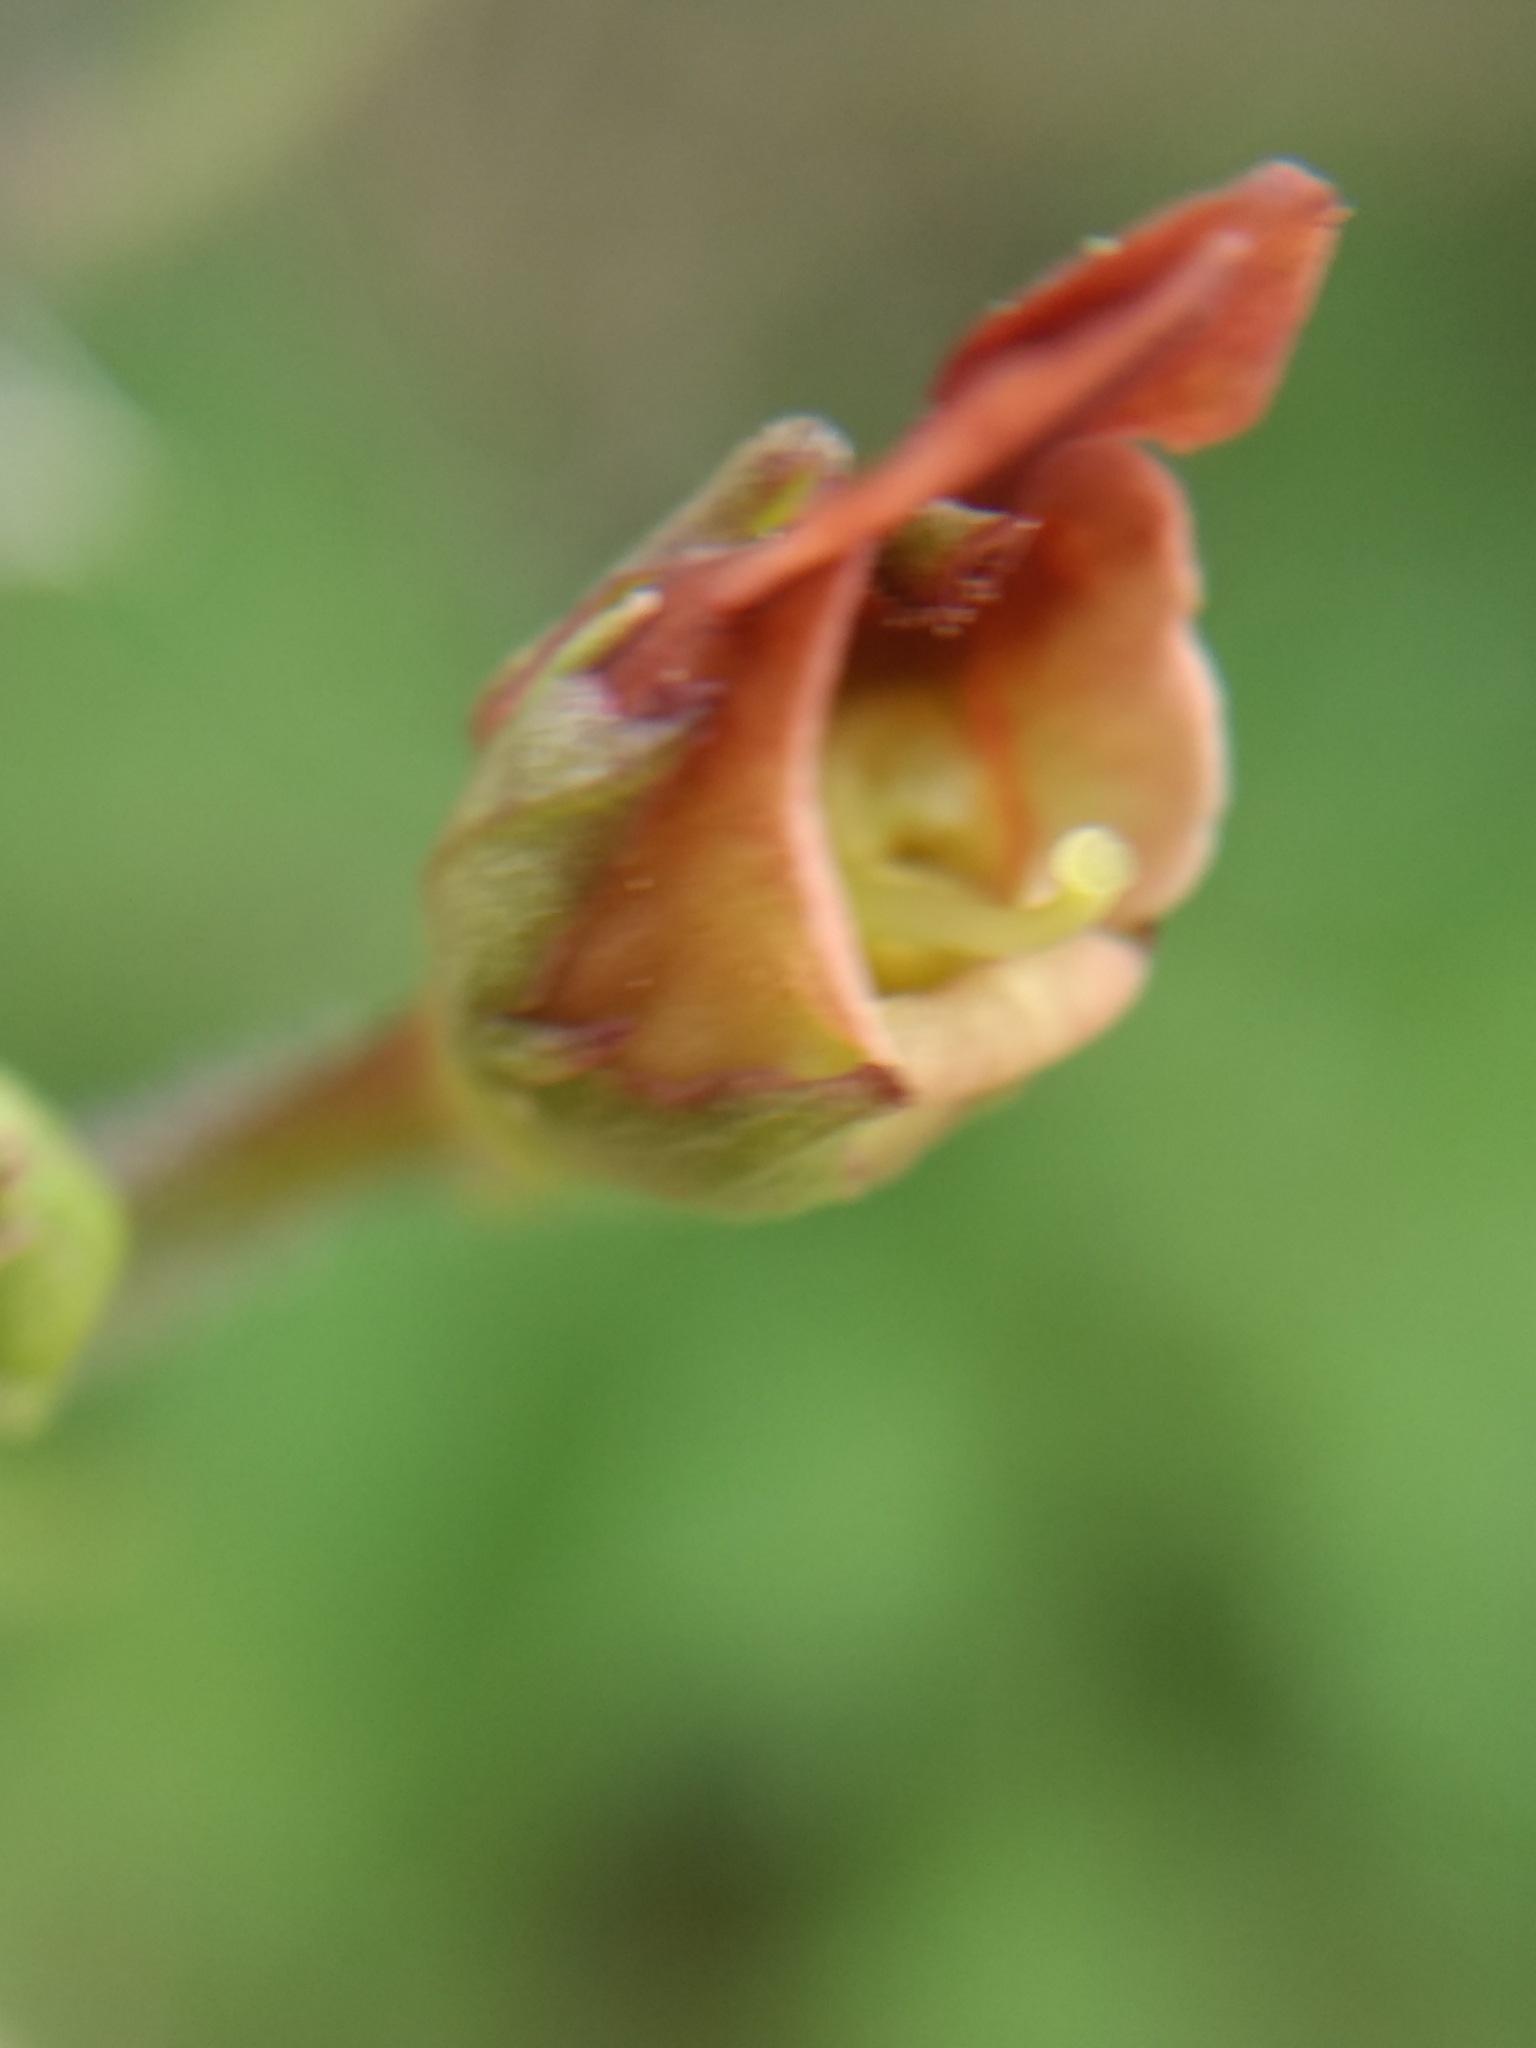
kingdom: Plantae
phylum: Tracheophyta
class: Magnoliopsida
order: Lamiales
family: Scrophulariaceae
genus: Scrophularia
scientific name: Scrophularia californica
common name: California figwort
